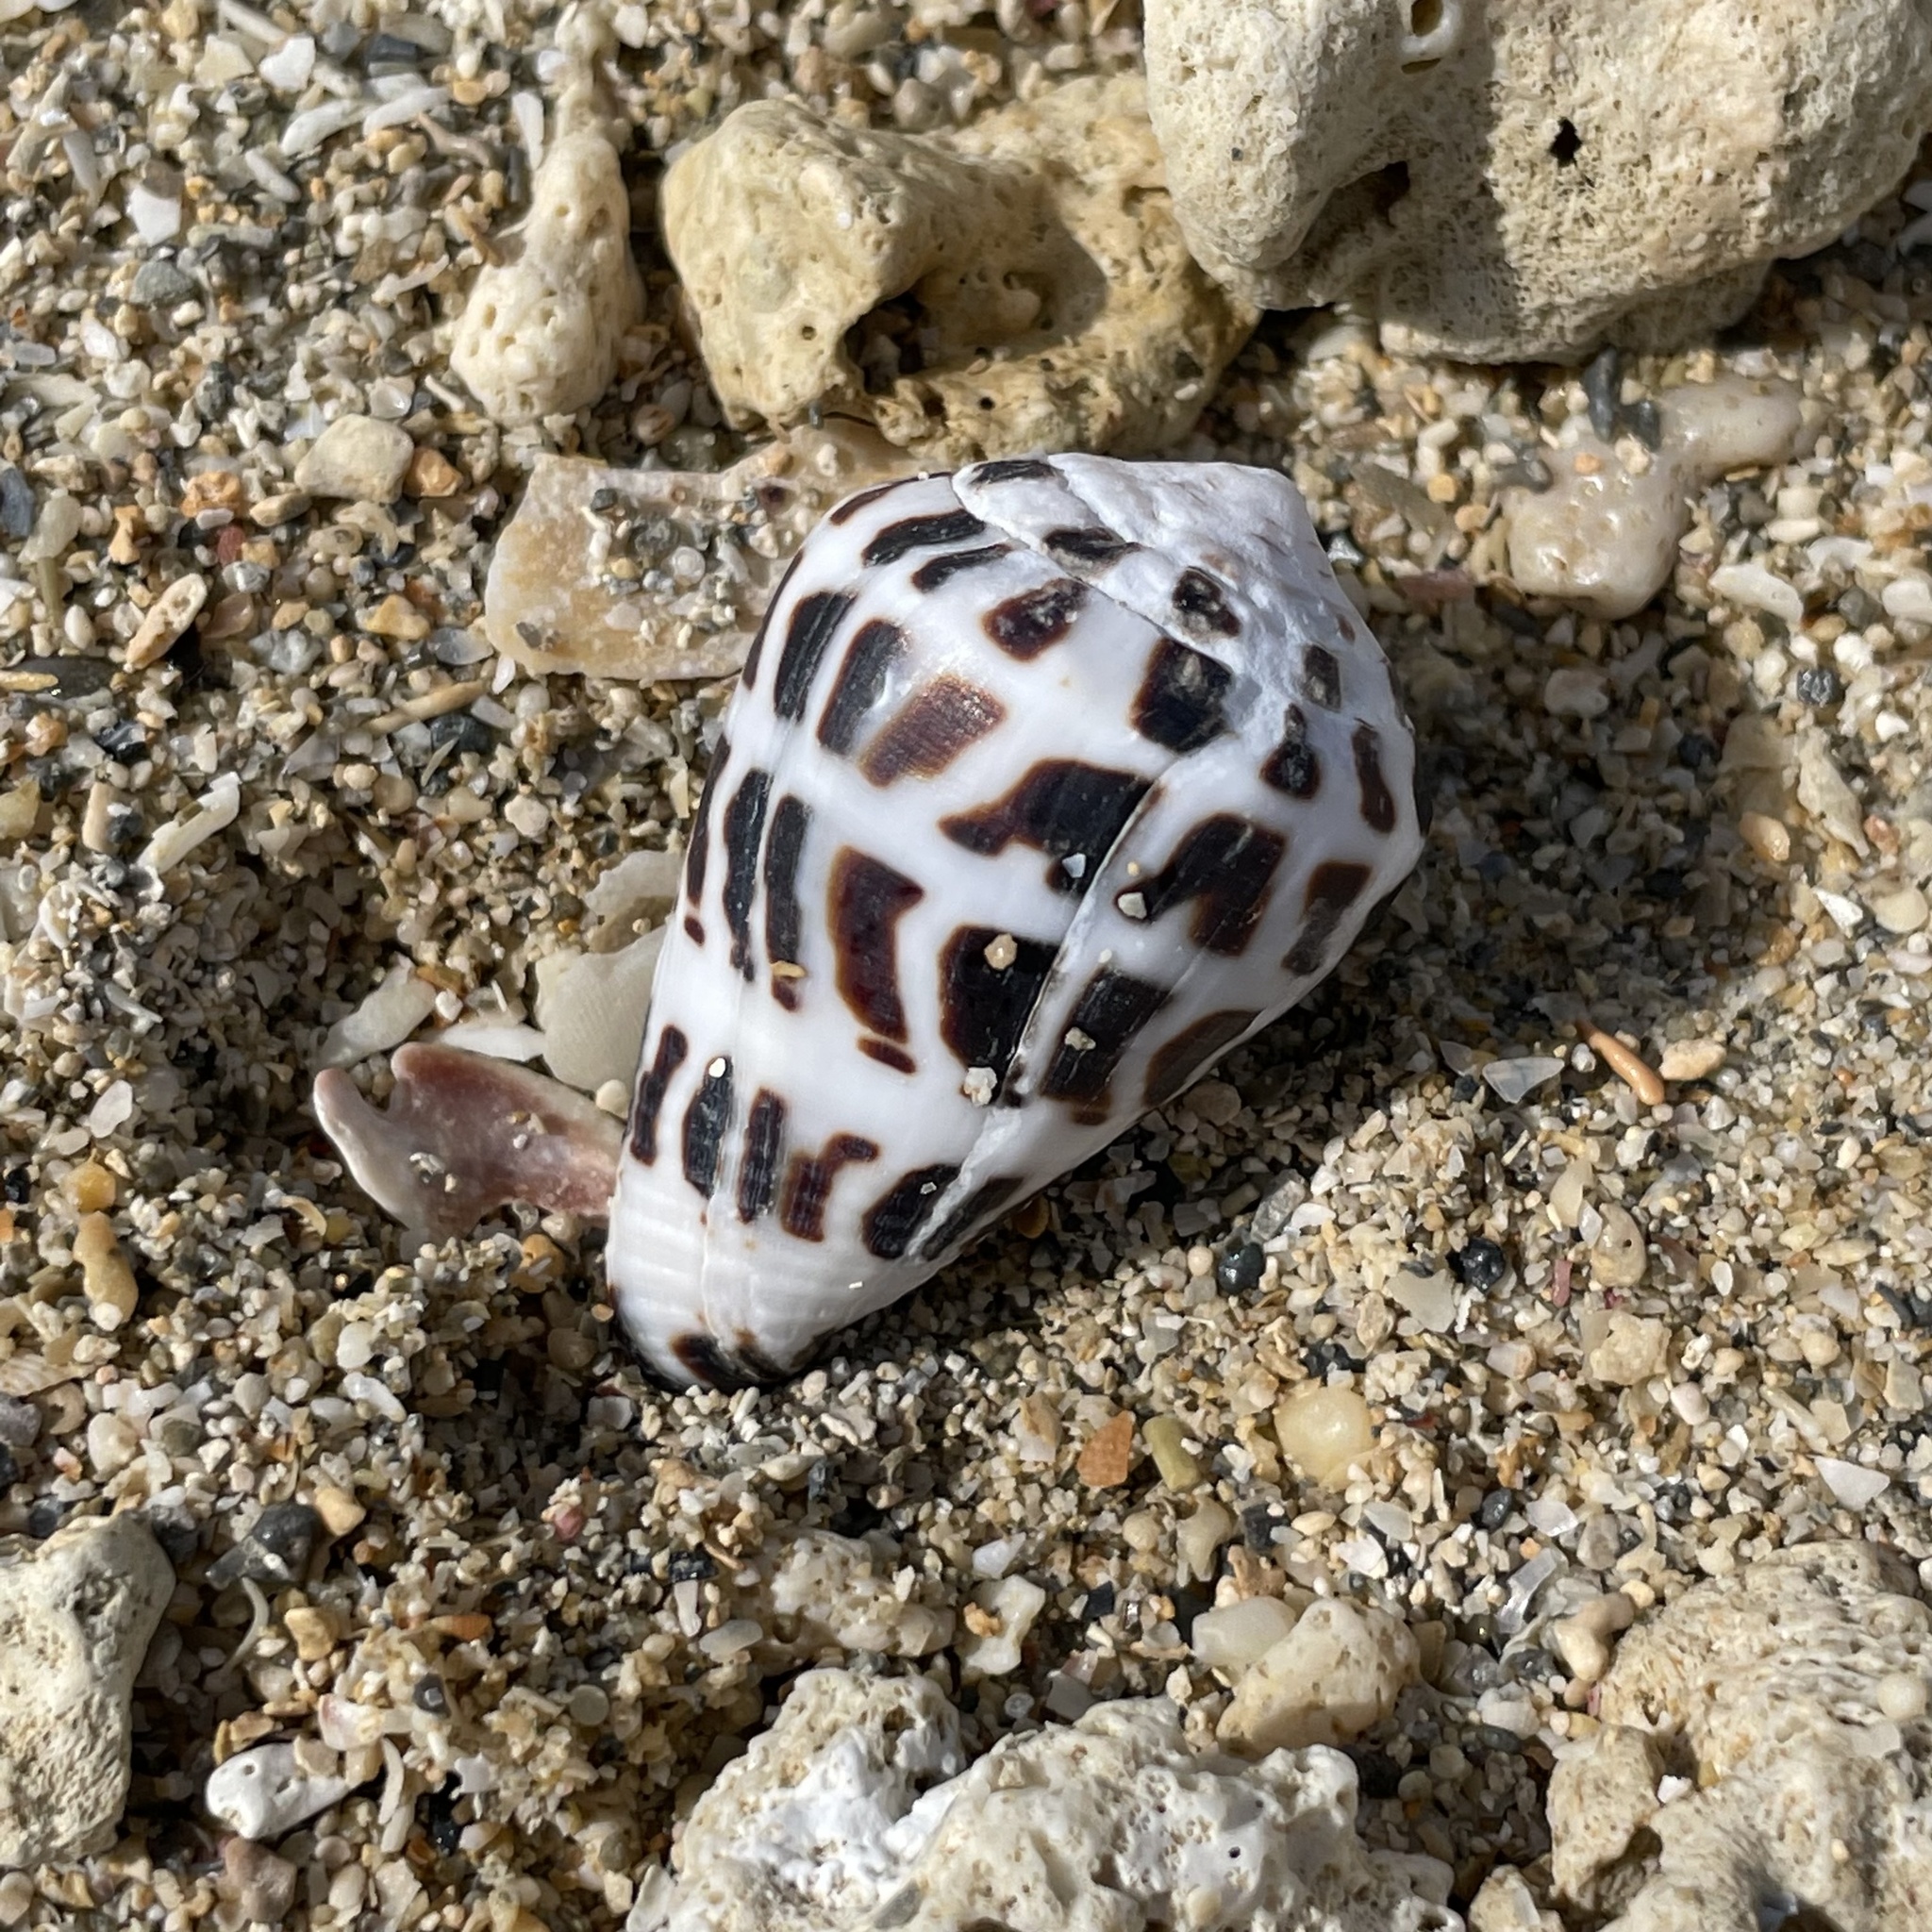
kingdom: Animalia
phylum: Mollusca
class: Gastropoda
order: Neogastropoda
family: Conidae
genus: Conus
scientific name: Conus ebraeus
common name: Hebrew cone
